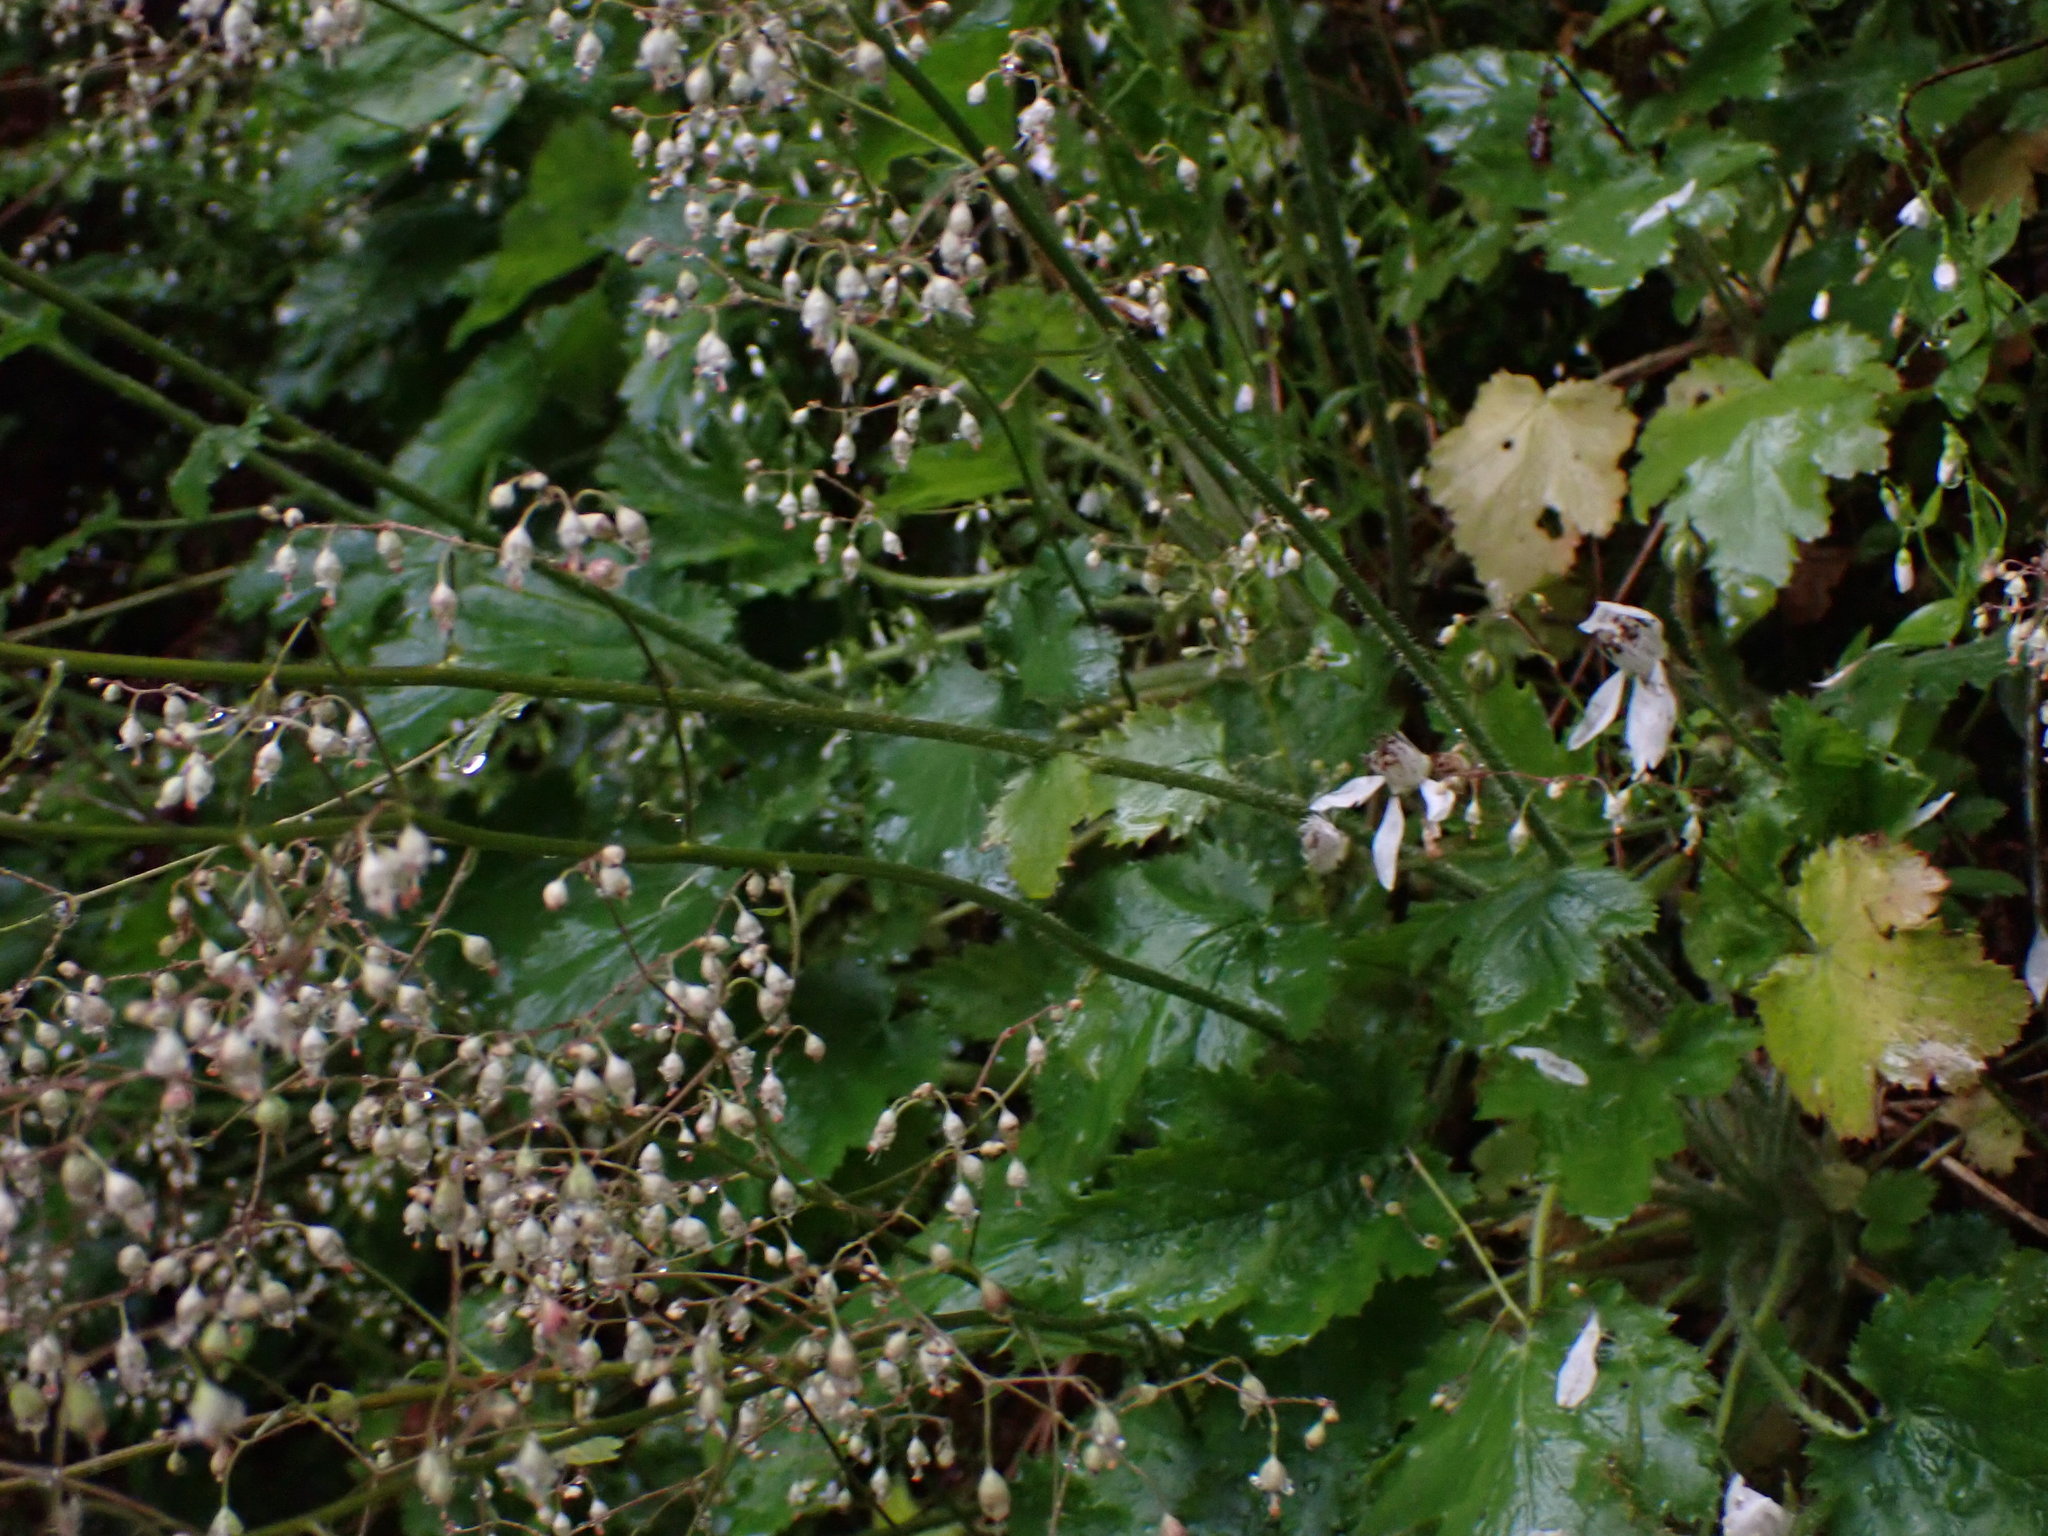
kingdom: Plantae
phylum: Tracheophyta
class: Magnoliopsida
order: Saxifragales
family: Saxifragaceae
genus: Heuchera
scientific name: Heuchera micrantha
